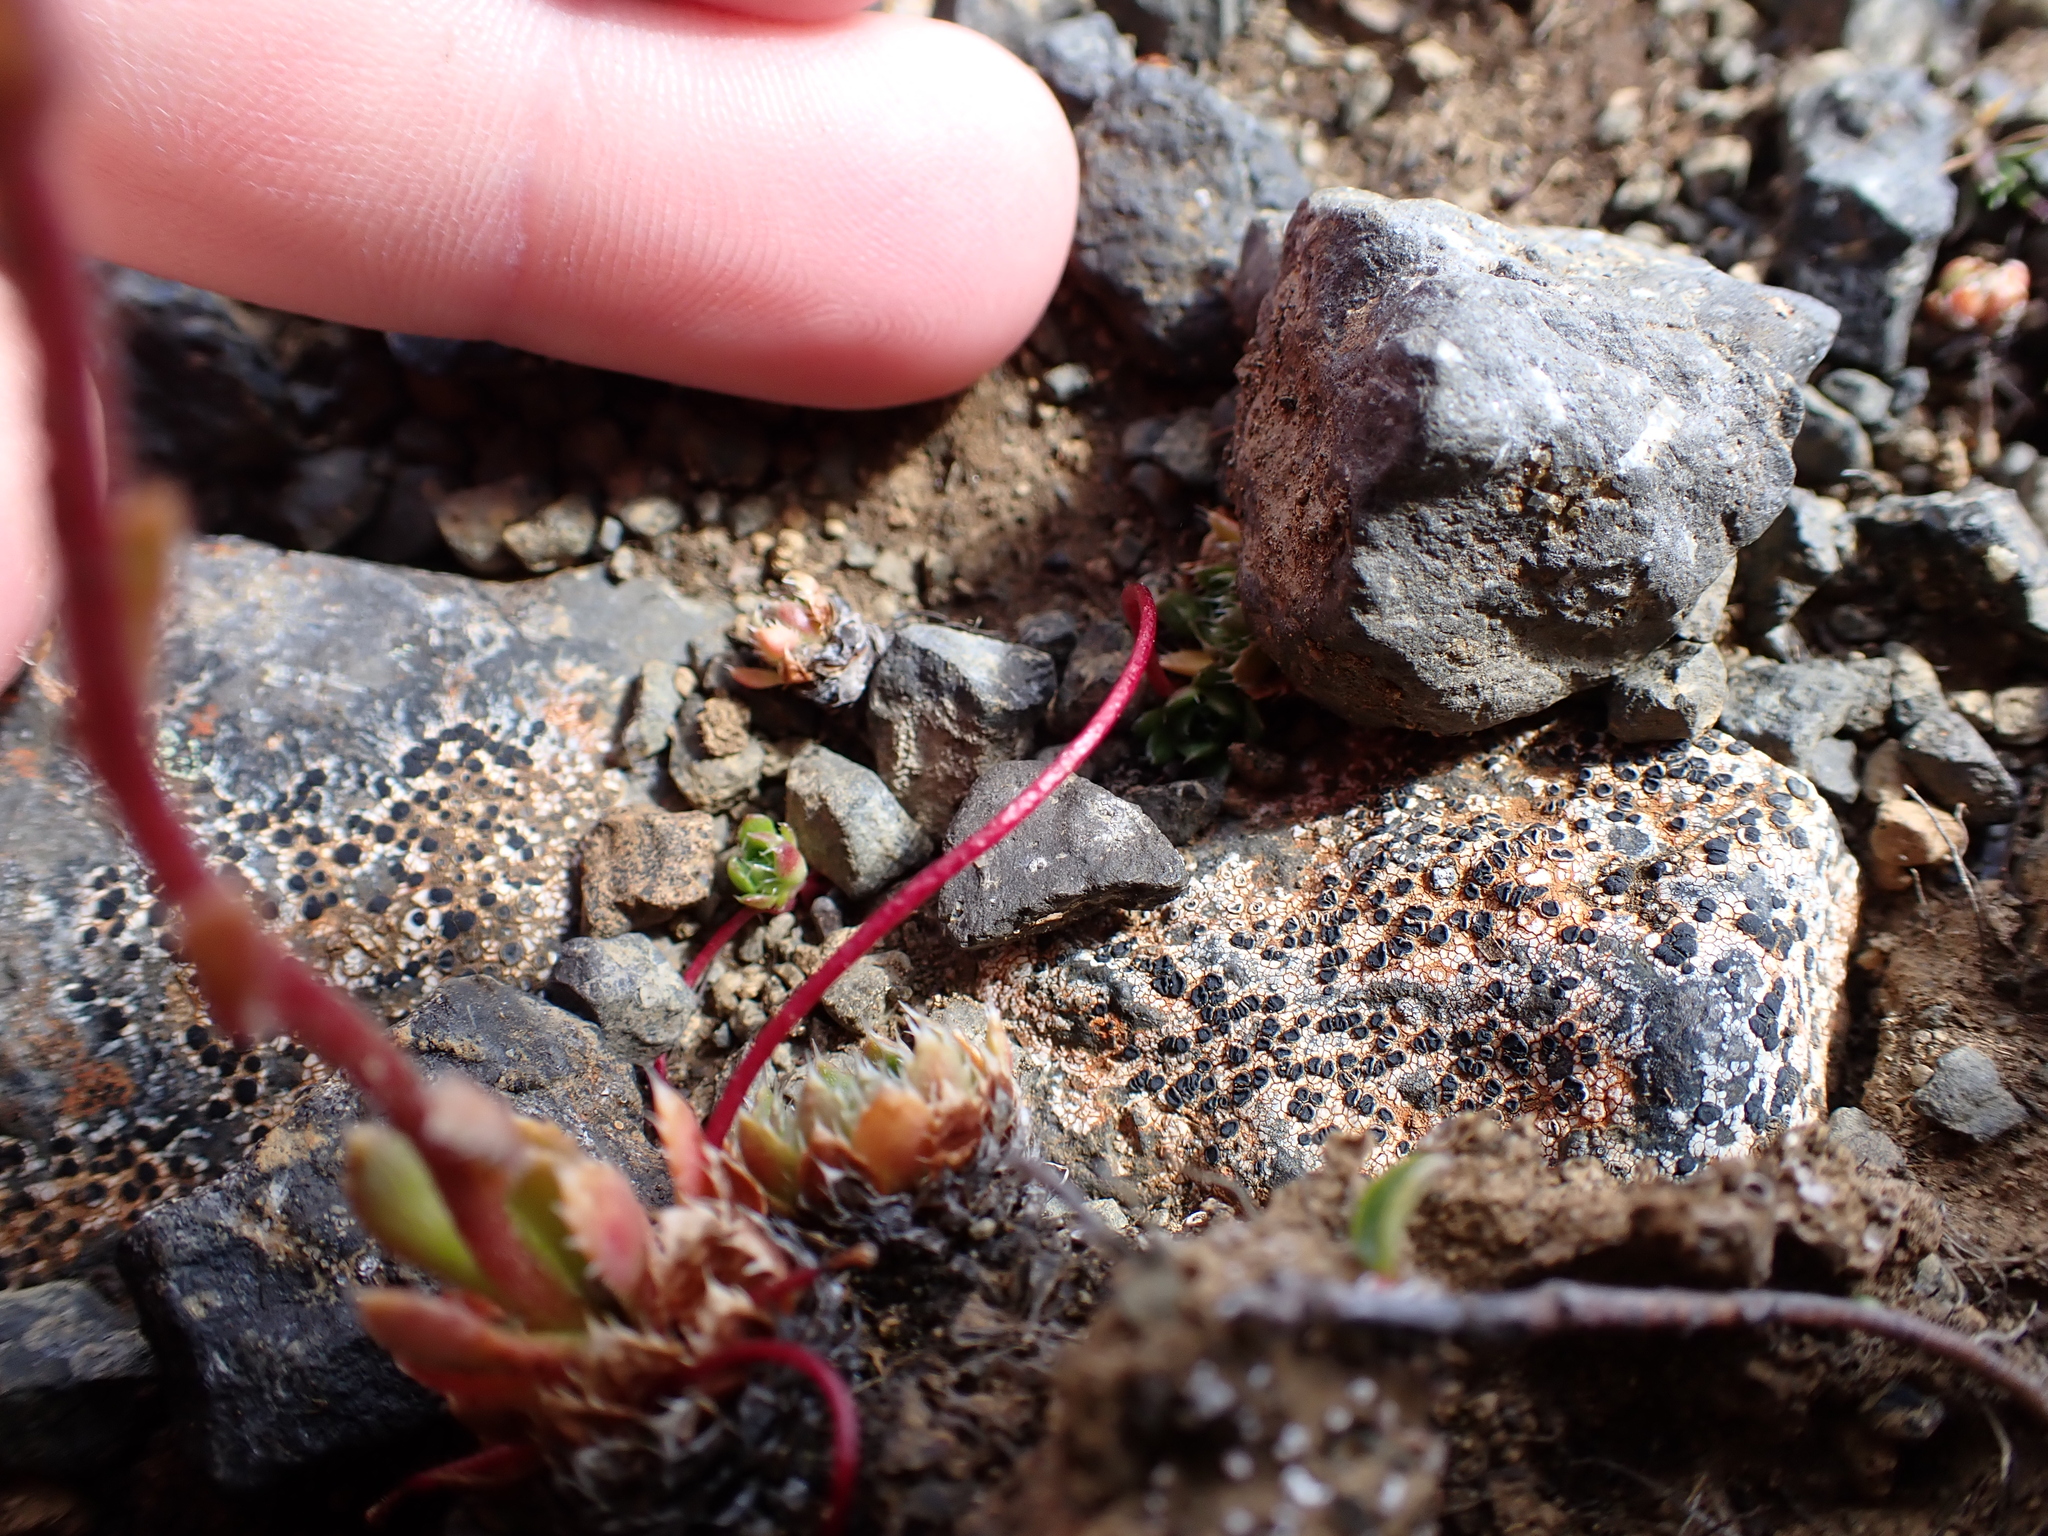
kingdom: Plantae
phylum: Tracheophyta
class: Magnoliopsida
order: Saxifragales
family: Saxifragaceae
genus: Saxifraga
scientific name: Saxifraga flagellaris
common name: Spider saxifrage
